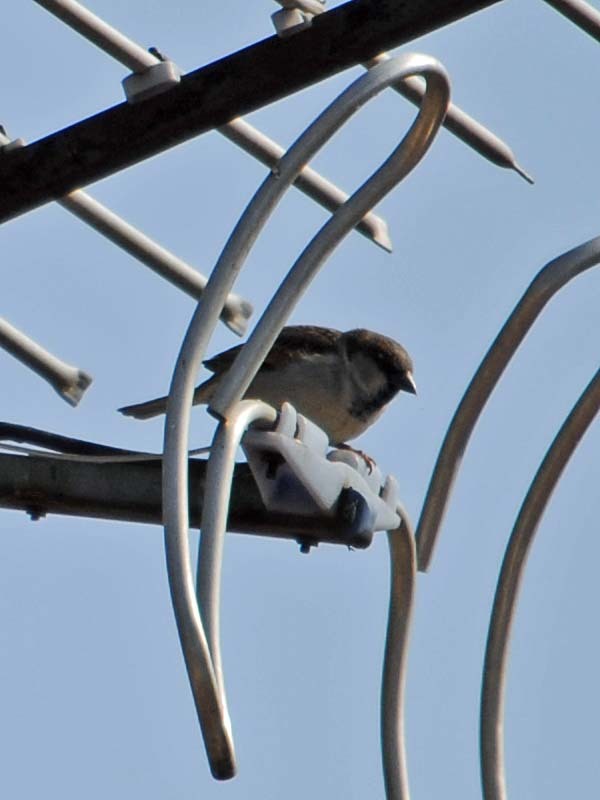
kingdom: Animalia
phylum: Chordata
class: Aves
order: Passeriformes
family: Passeridae
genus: Passer
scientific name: Passer domesticus
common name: House sparrow
